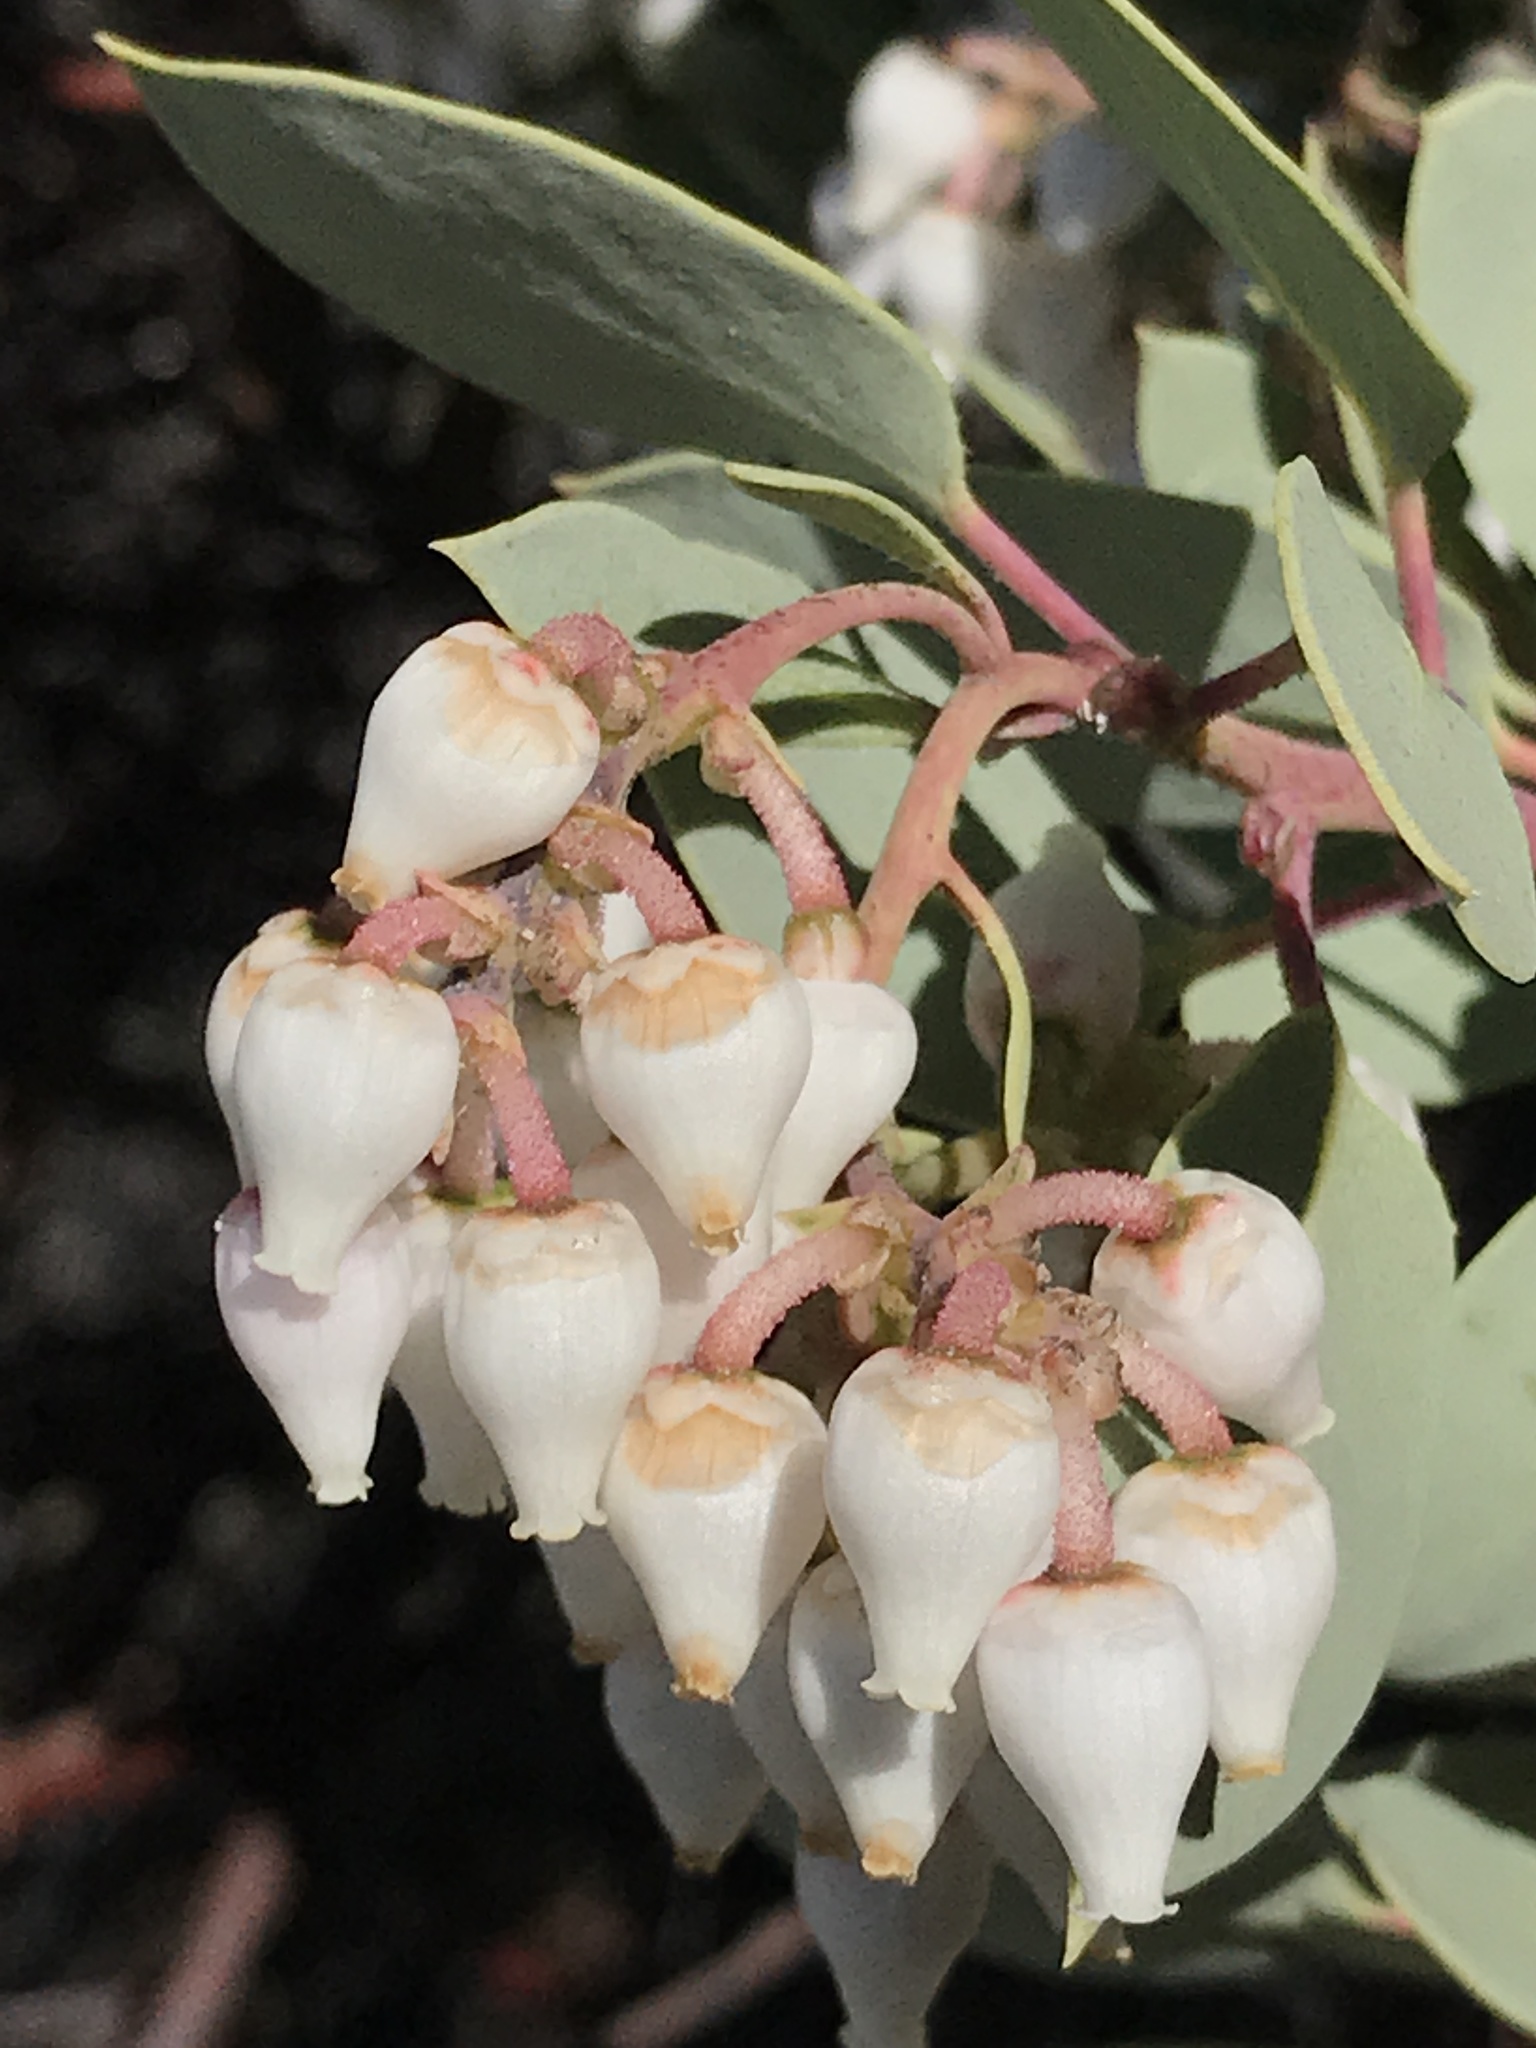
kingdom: Plantae
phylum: Tracheophyta
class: Magnoliopsida
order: Ericales
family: Ericaceae
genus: Arctostaphylos
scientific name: Arctostaphylos glauca
